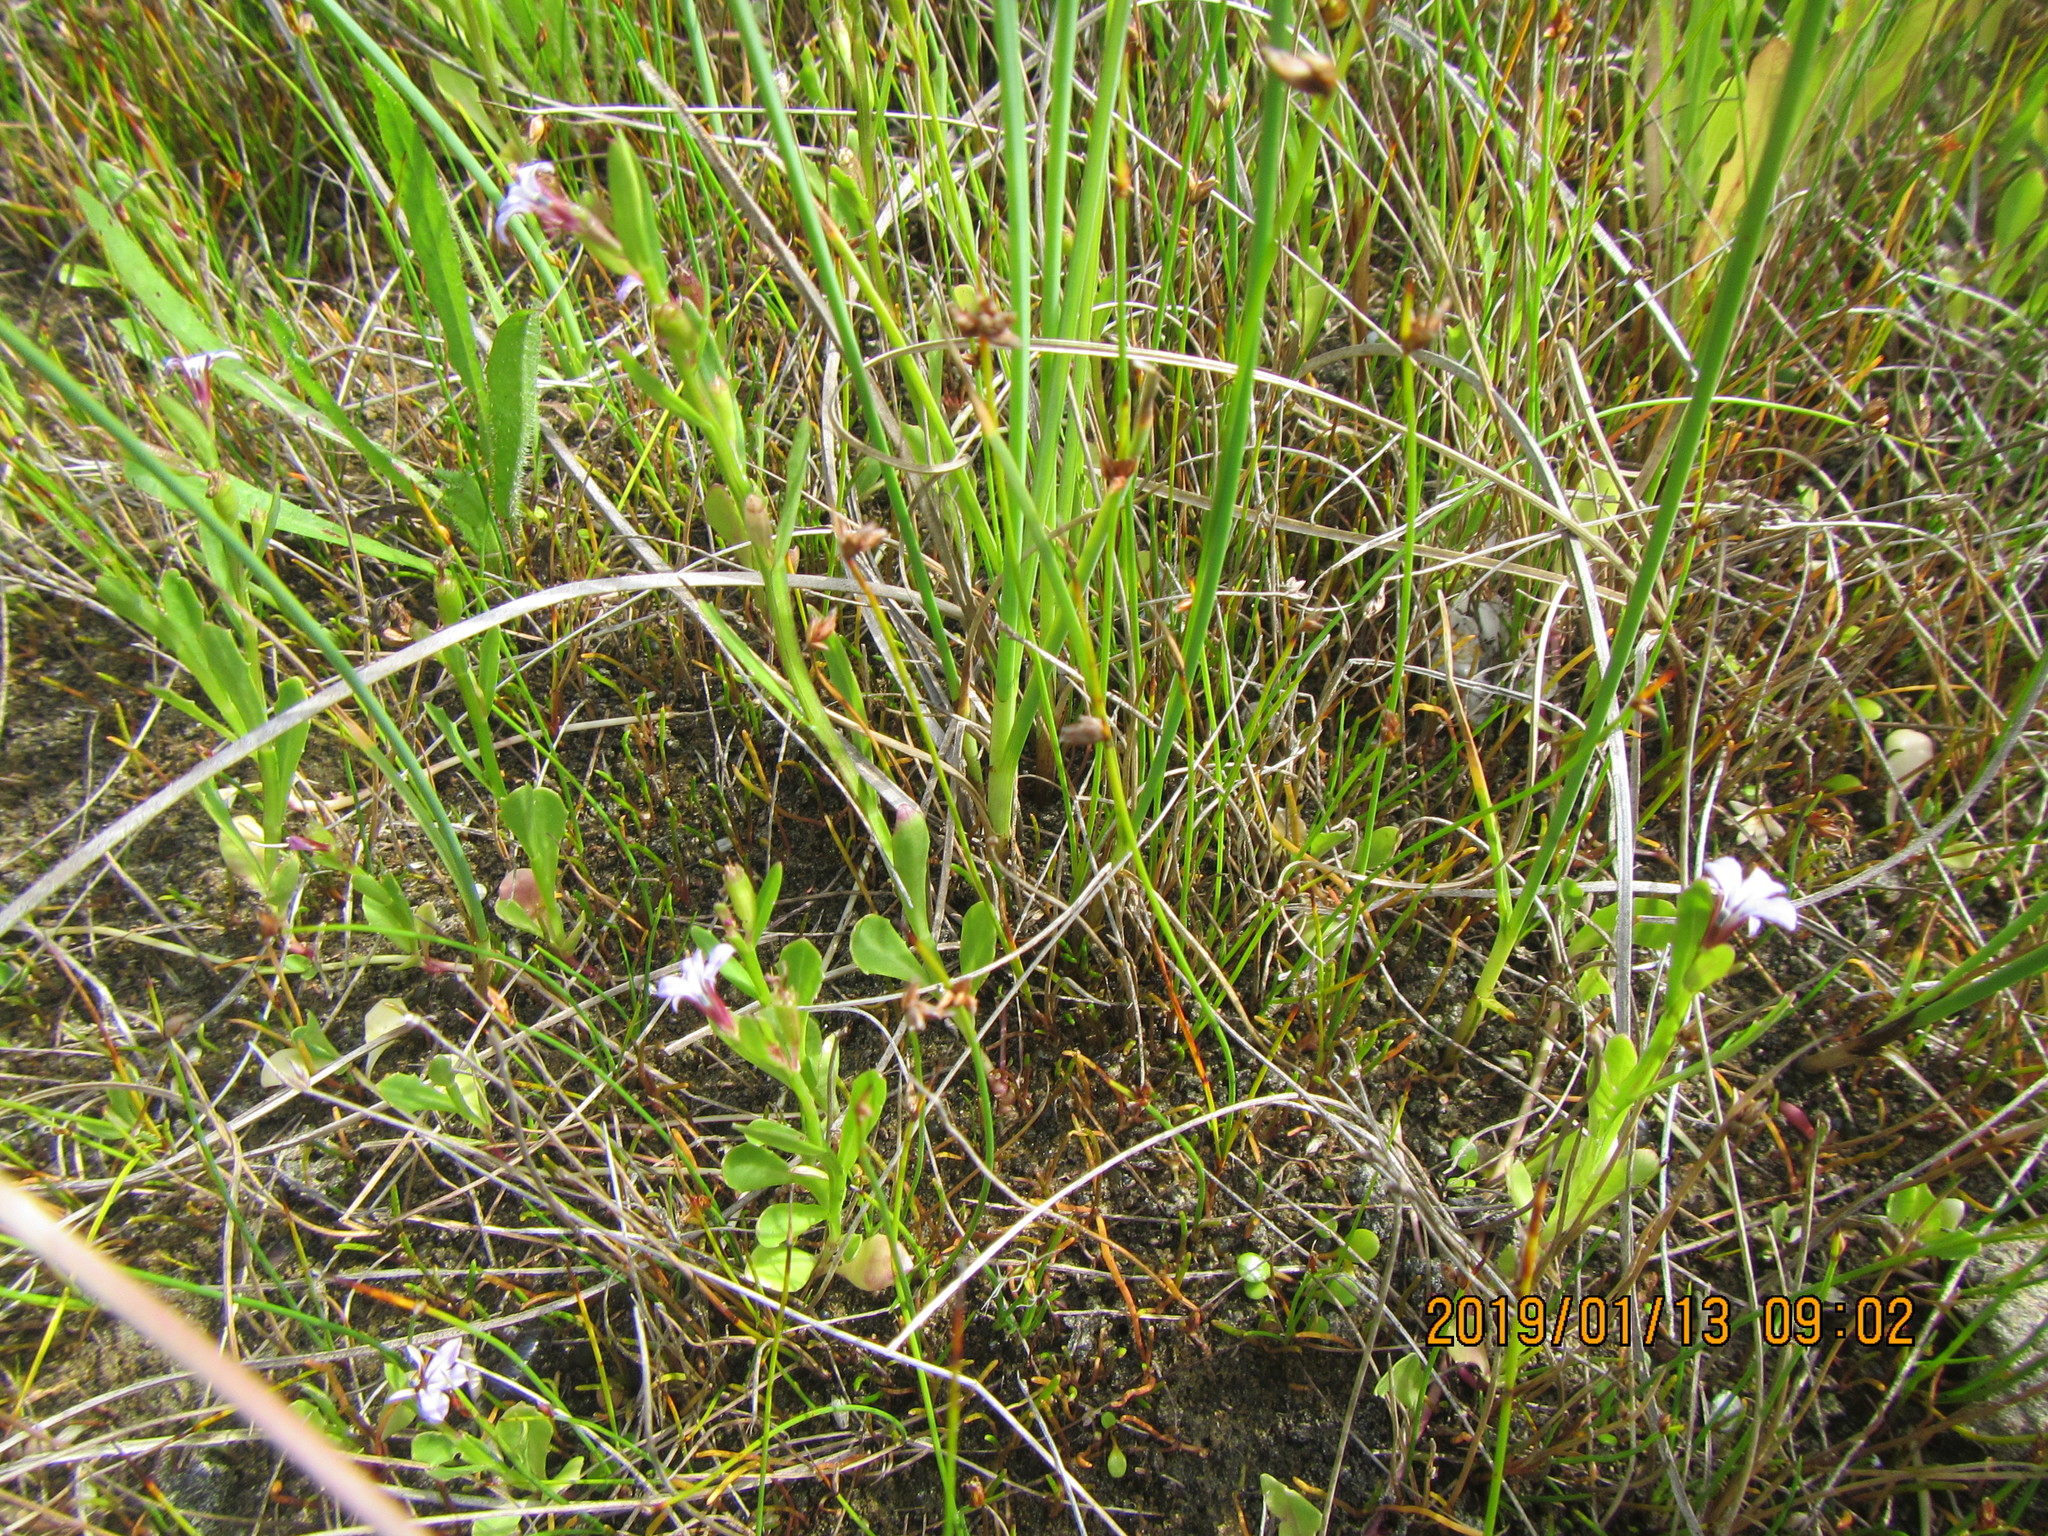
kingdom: Plantae
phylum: Tracheophyta
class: Magnoliopsida
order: Asterales
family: Campanulaceae
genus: Lobelia
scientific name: Lobelia anceps
